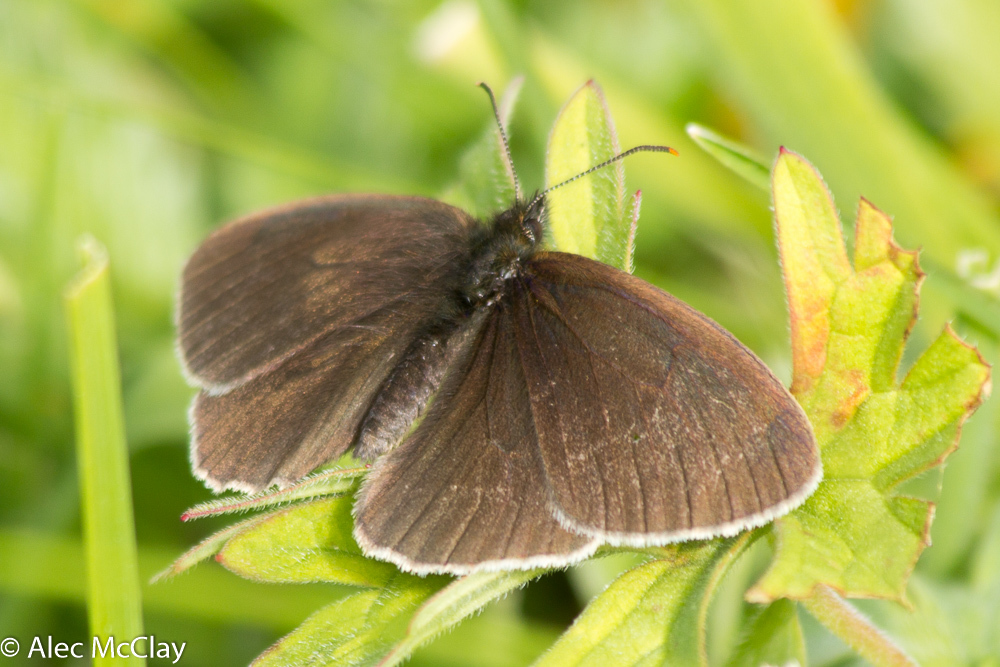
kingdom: Animalia
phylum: Arthropoda
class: Insecta
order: Lepidoptera
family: Nymphalidae
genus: Aphantopus
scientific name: Aphantopus hyperantus
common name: Ringlet
